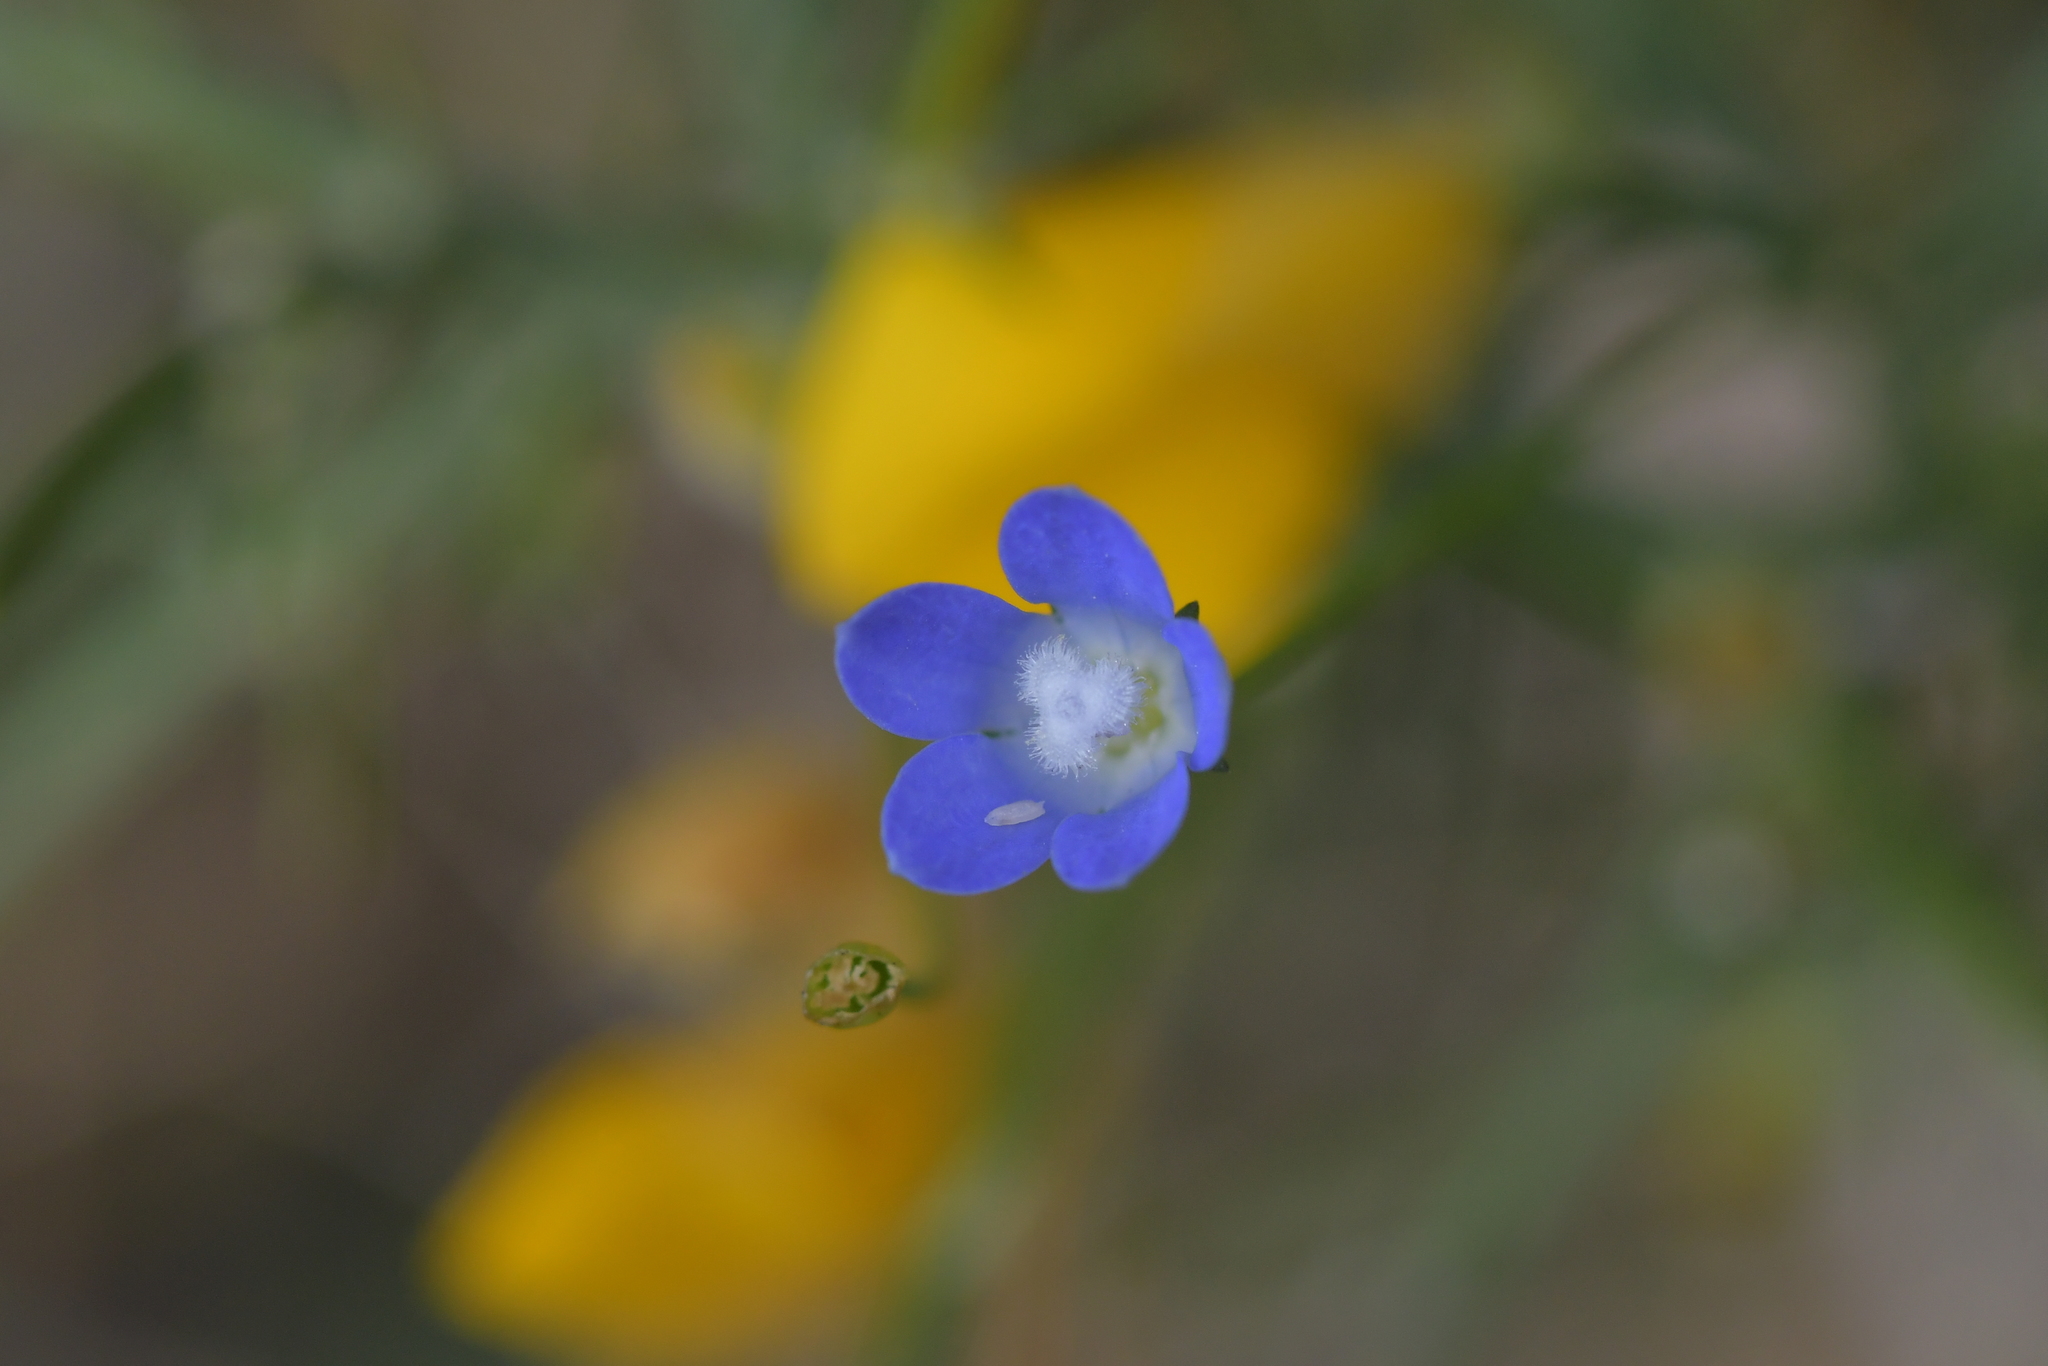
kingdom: Plantae
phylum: Tracheophyta
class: Magnoliopsida
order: Asterales
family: Campanulaceae
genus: Wahlenbergia
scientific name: Wahlenbergia violacea
